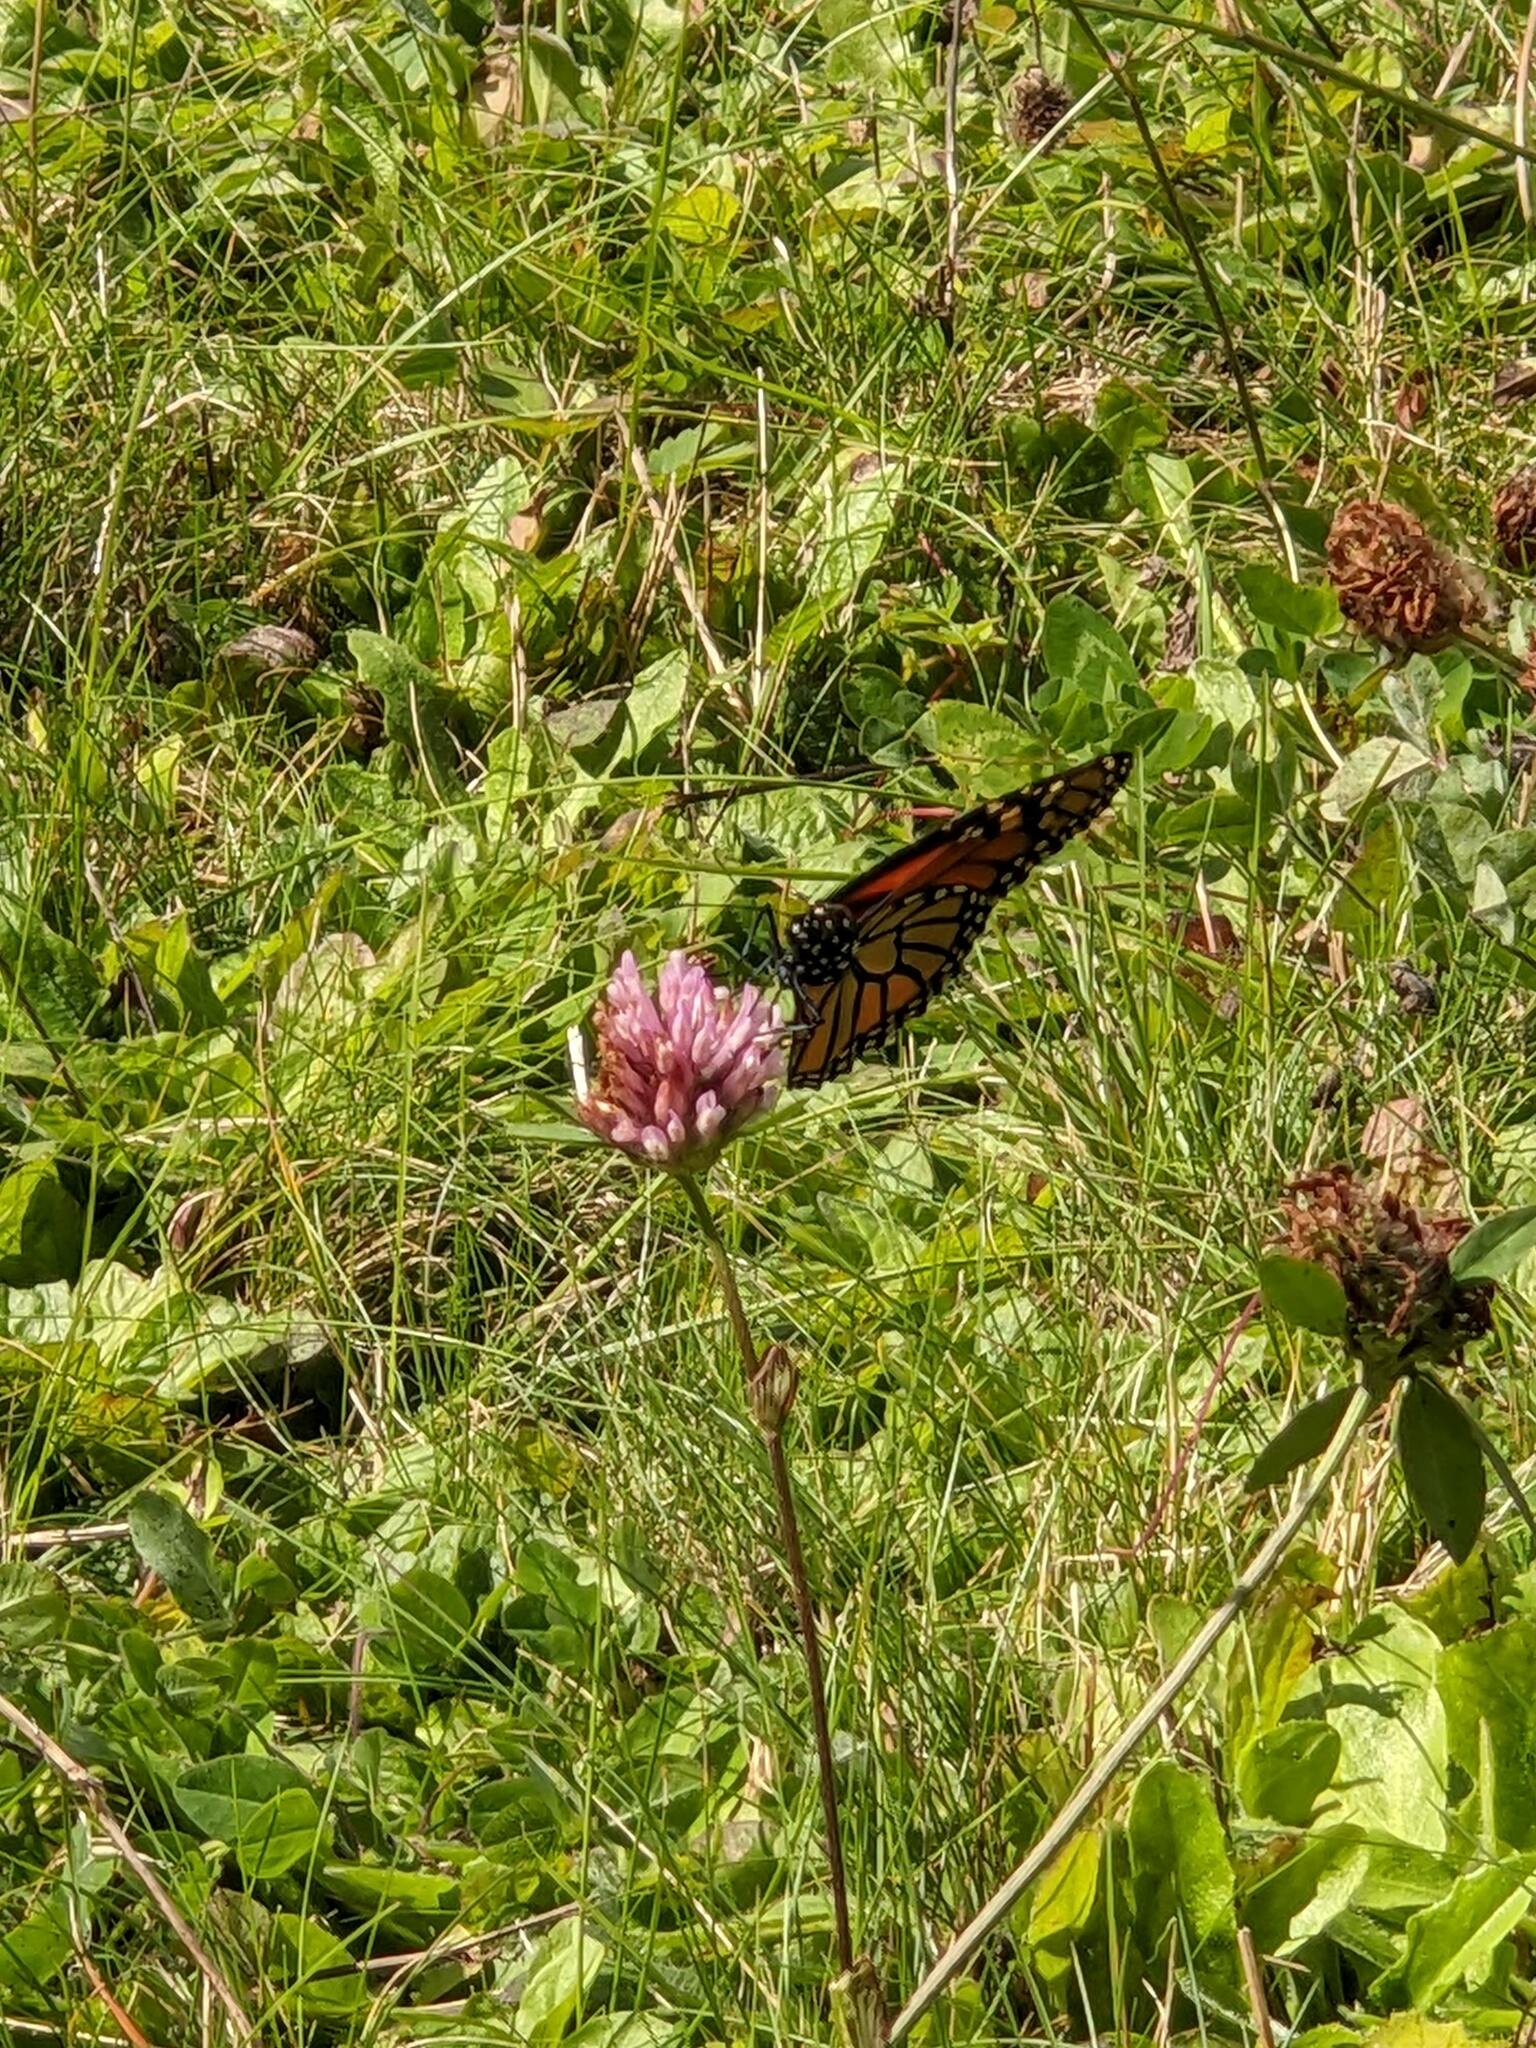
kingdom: Animalia
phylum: Arthropoda
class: Insecta
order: Lepidoptera
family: Nymphalidae
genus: Danaus
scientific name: Danaus plexippus
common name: Monarch
